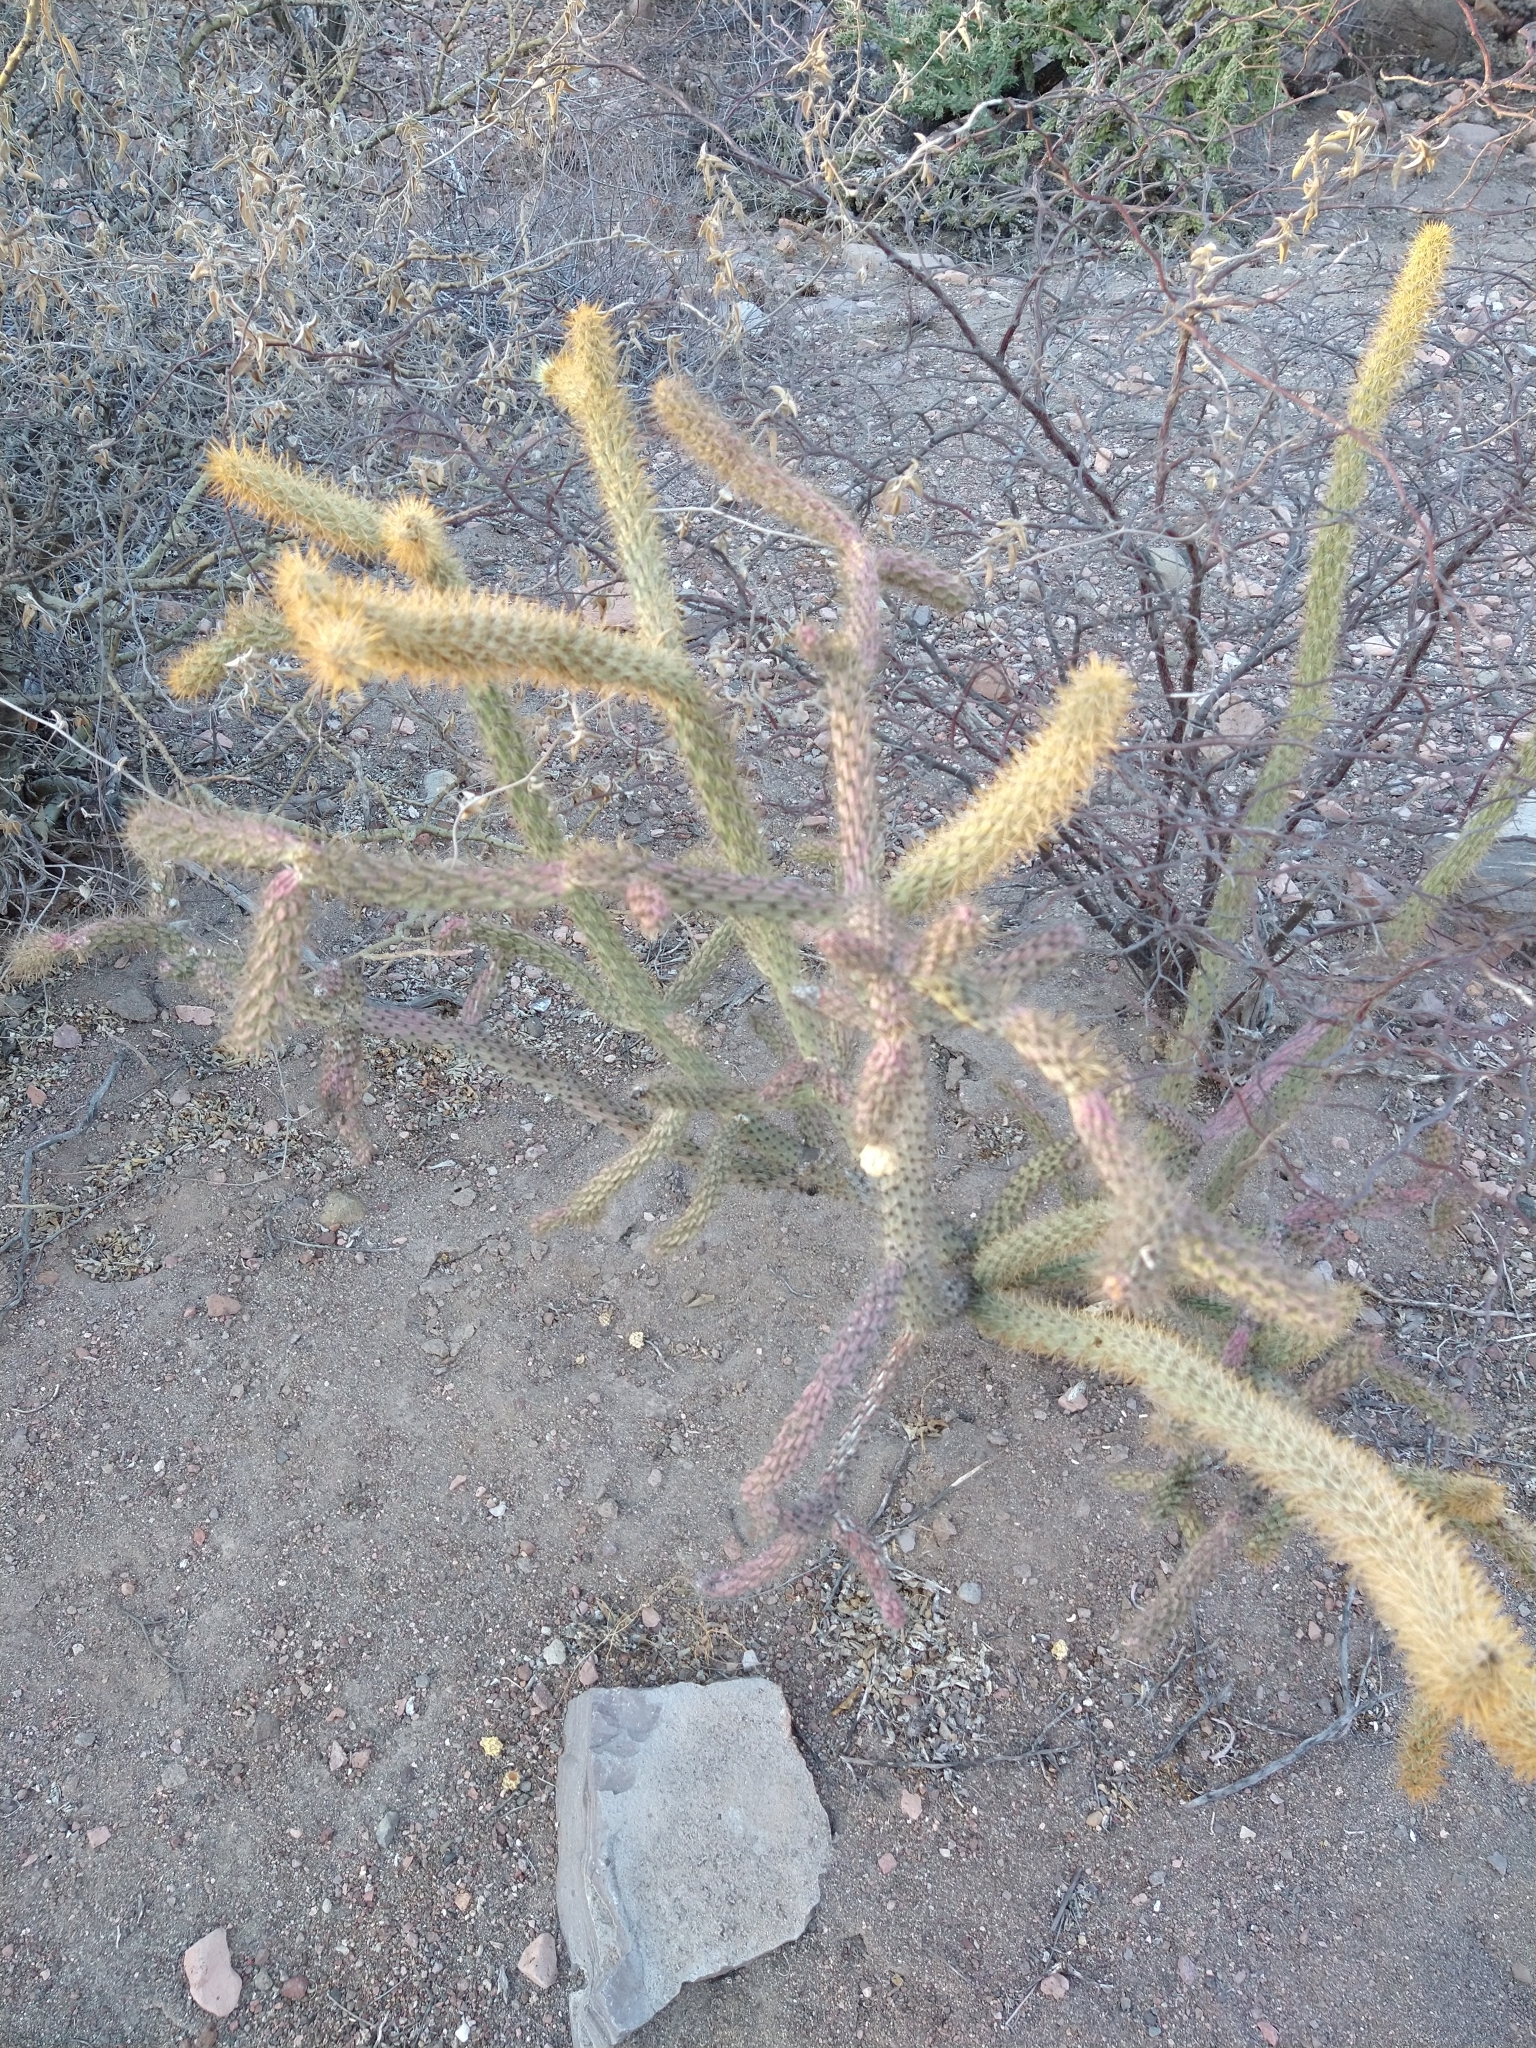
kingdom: Plantae
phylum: Tracheophyta
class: Magnoliopsida
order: Caryophyllales
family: Cactaceae
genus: Cylindropuntia
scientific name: Cylindropuntia alcahes
